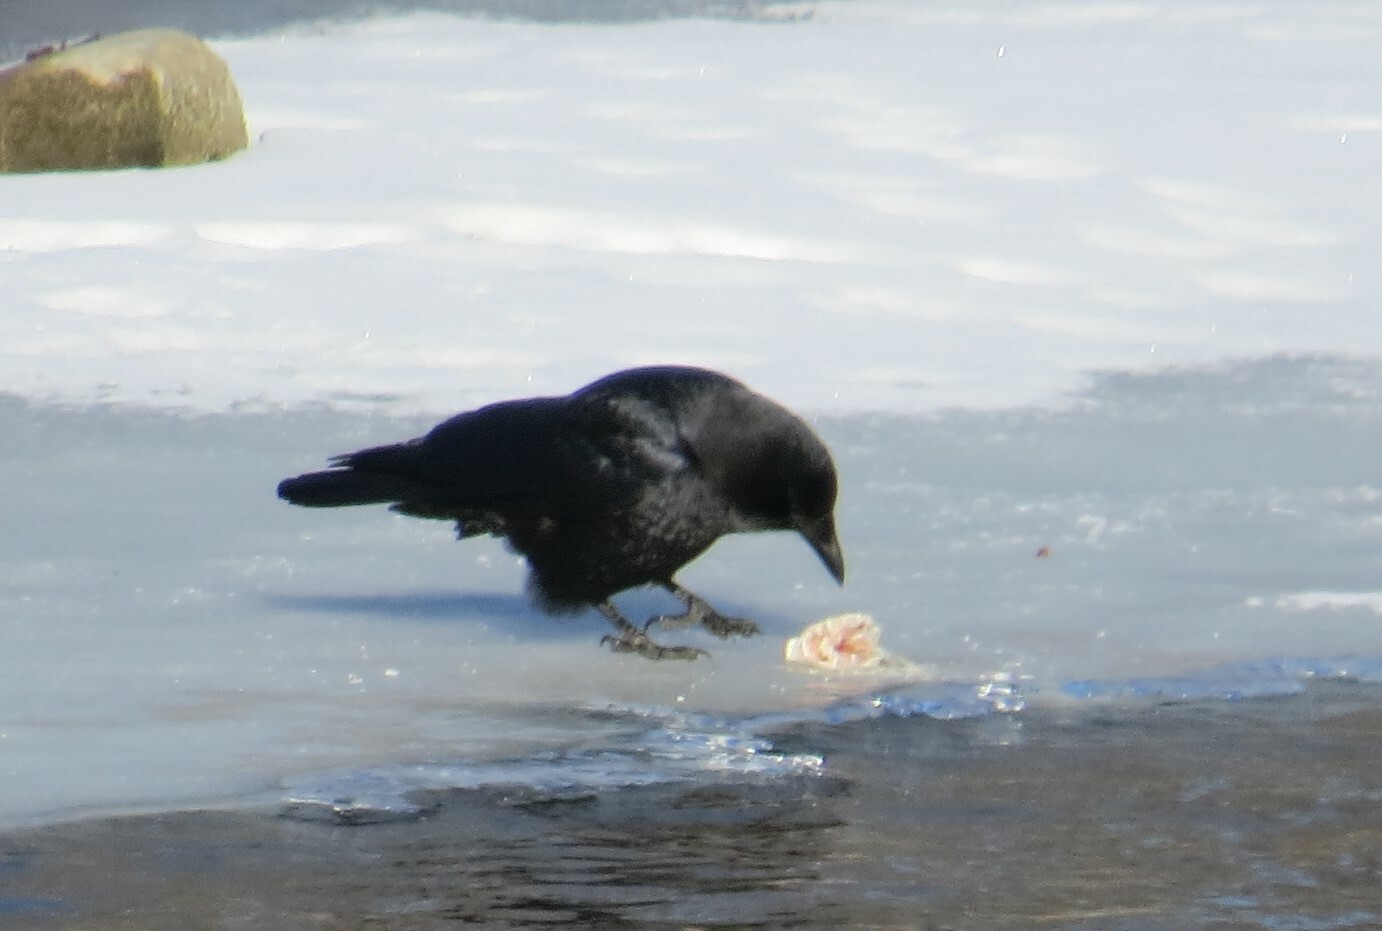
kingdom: Animalia
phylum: Chordata
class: Aves
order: Passeriformes
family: Corvidae
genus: Corvus
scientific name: Corvus brachyrhynchos
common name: American crow
